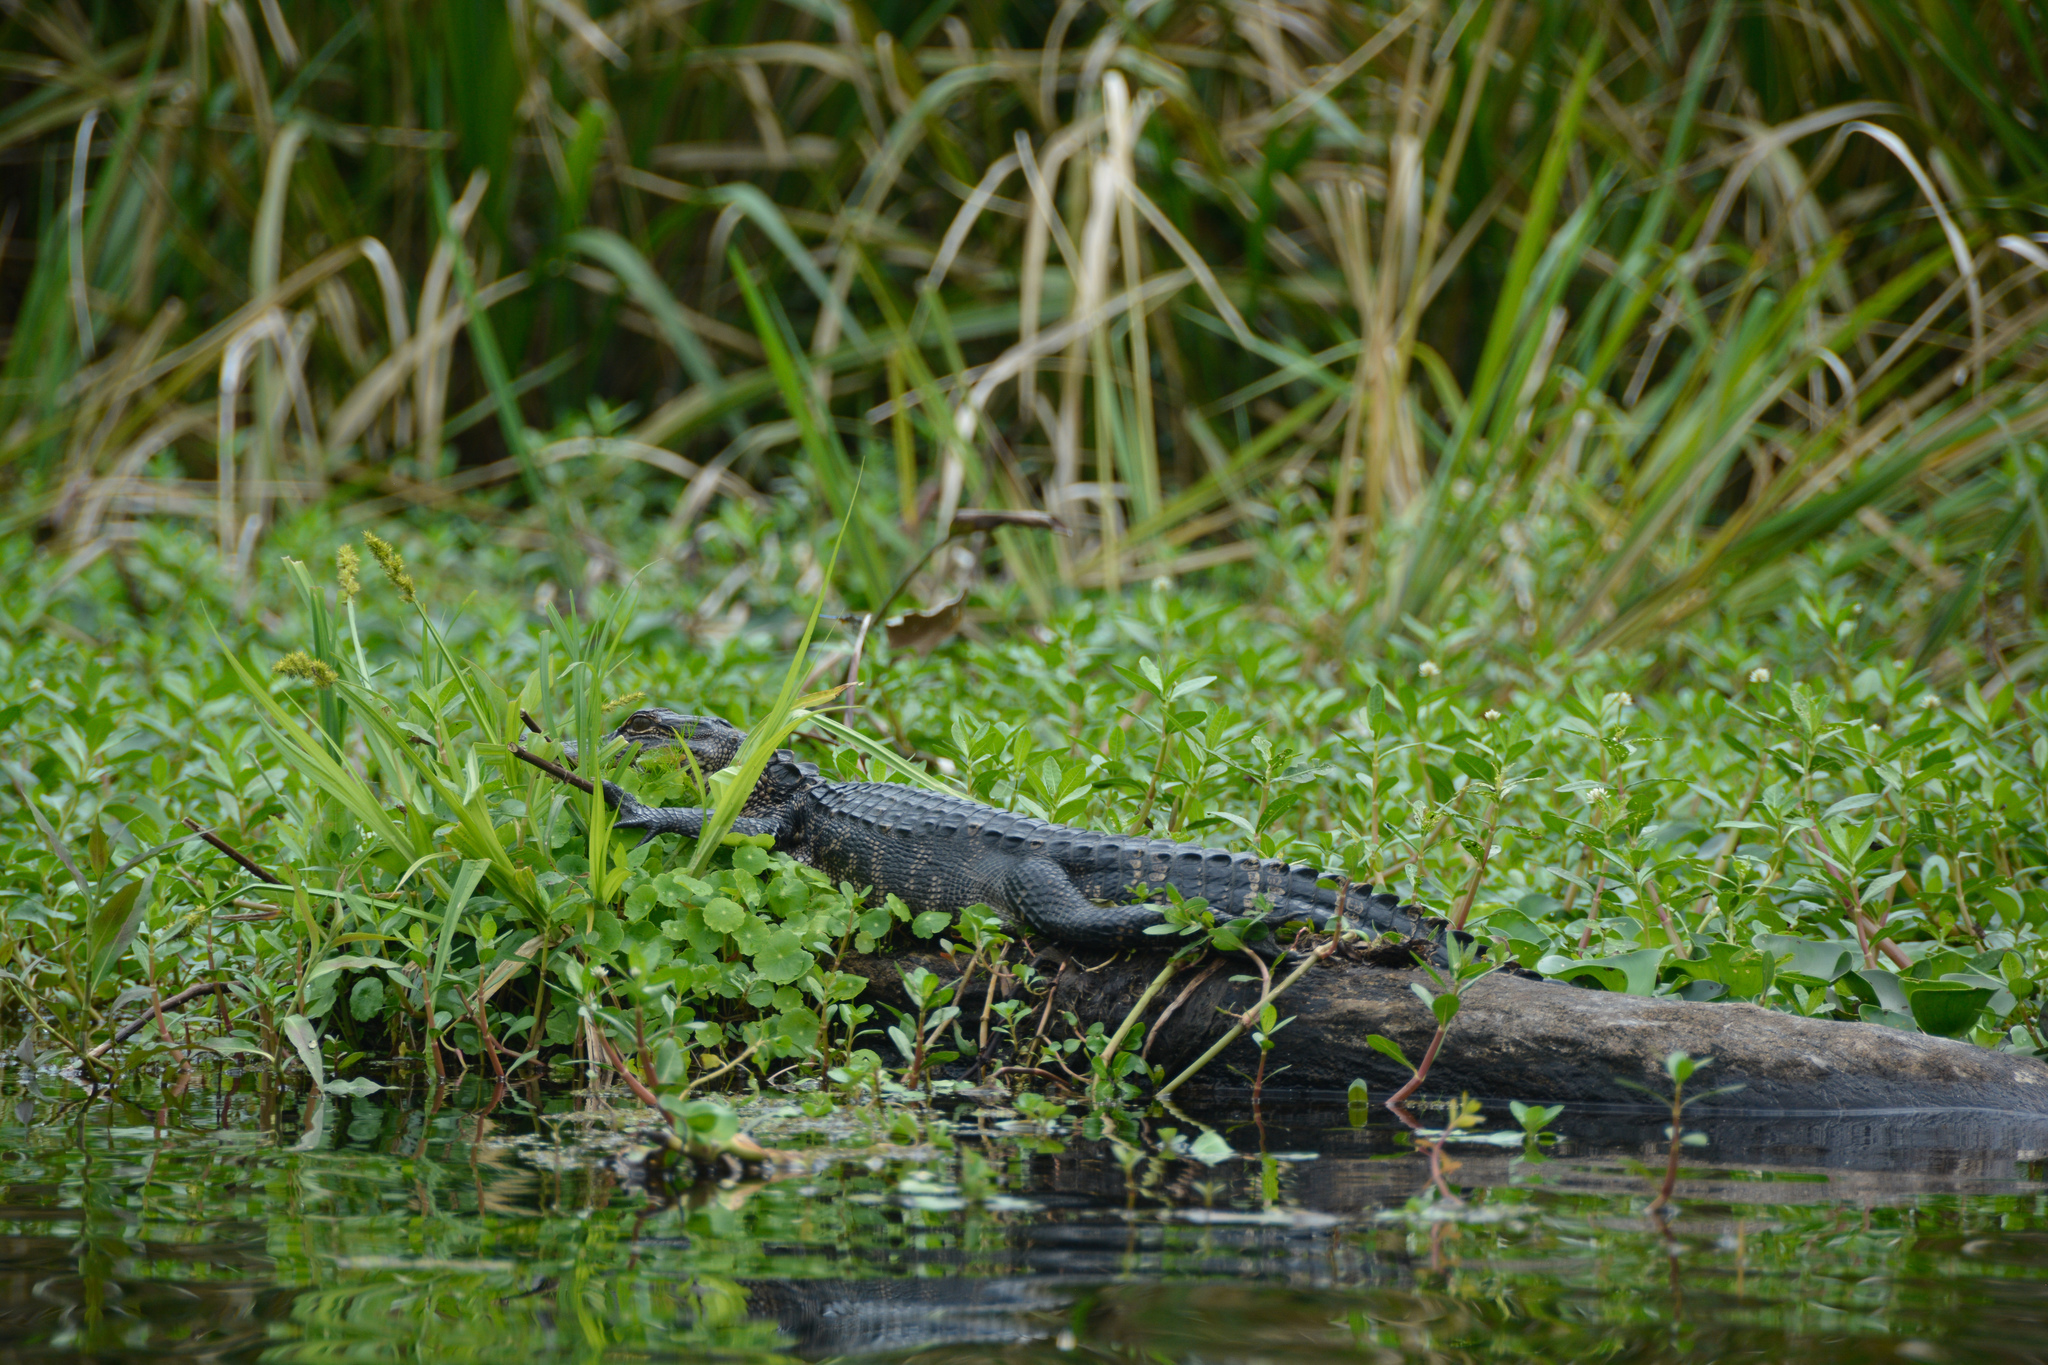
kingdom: Animalia
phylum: Chordata
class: Crocodylia
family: Alligatoridae
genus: Alligator
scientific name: Alligator mississippiensis
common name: American alligator
